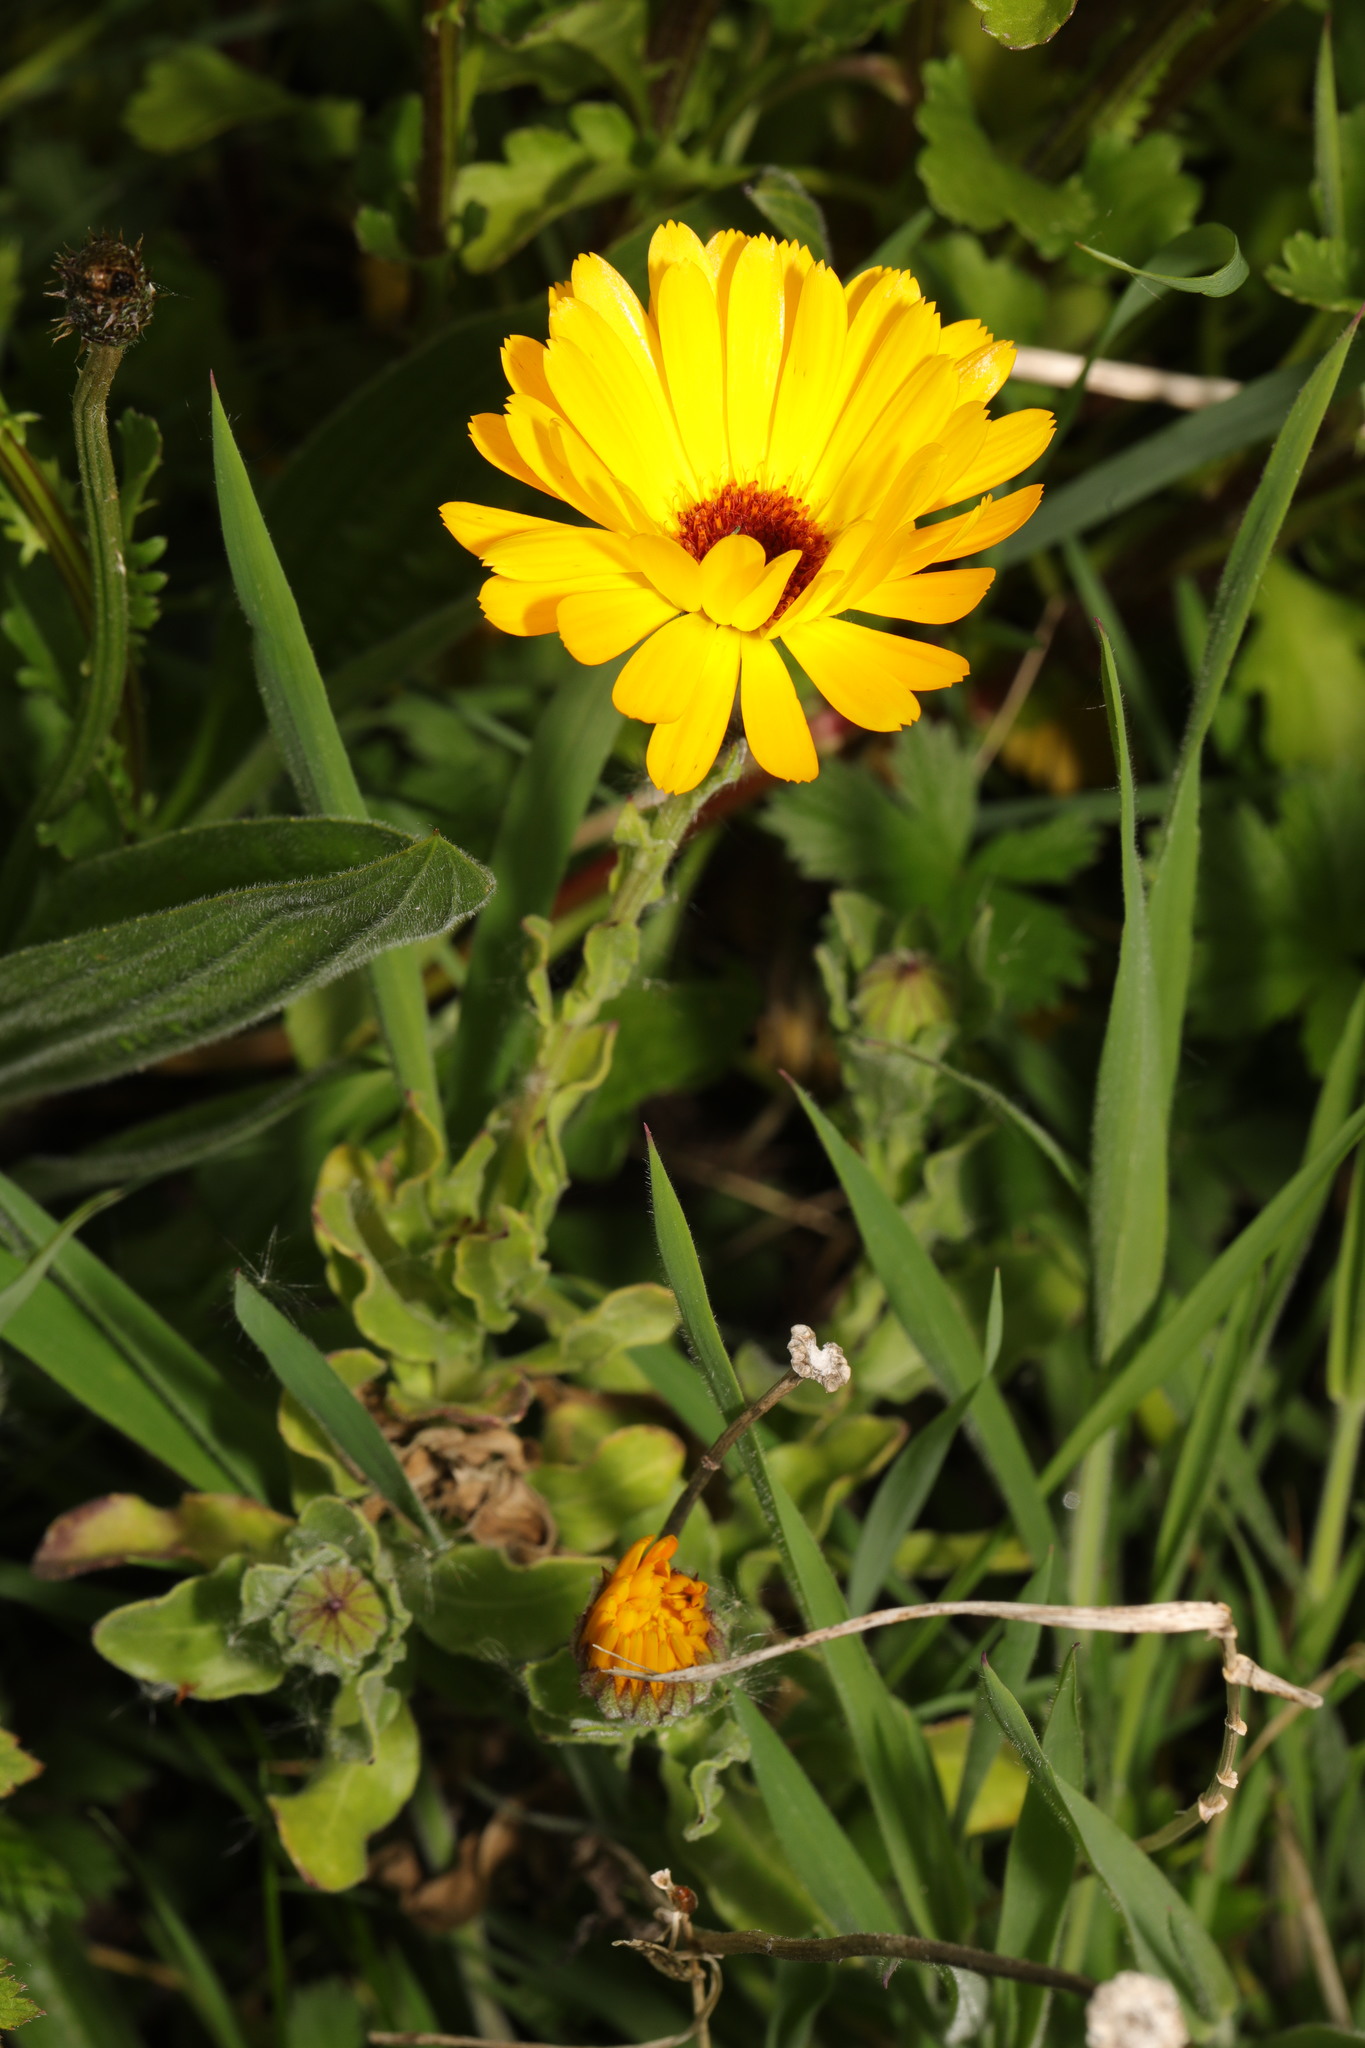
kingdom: Plantae
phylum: Tracheophyta
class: Magnoliopsida
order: Asterales
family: Asteraceae
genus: Calendula
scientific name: Calendula officinalis
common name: Pot marigold
